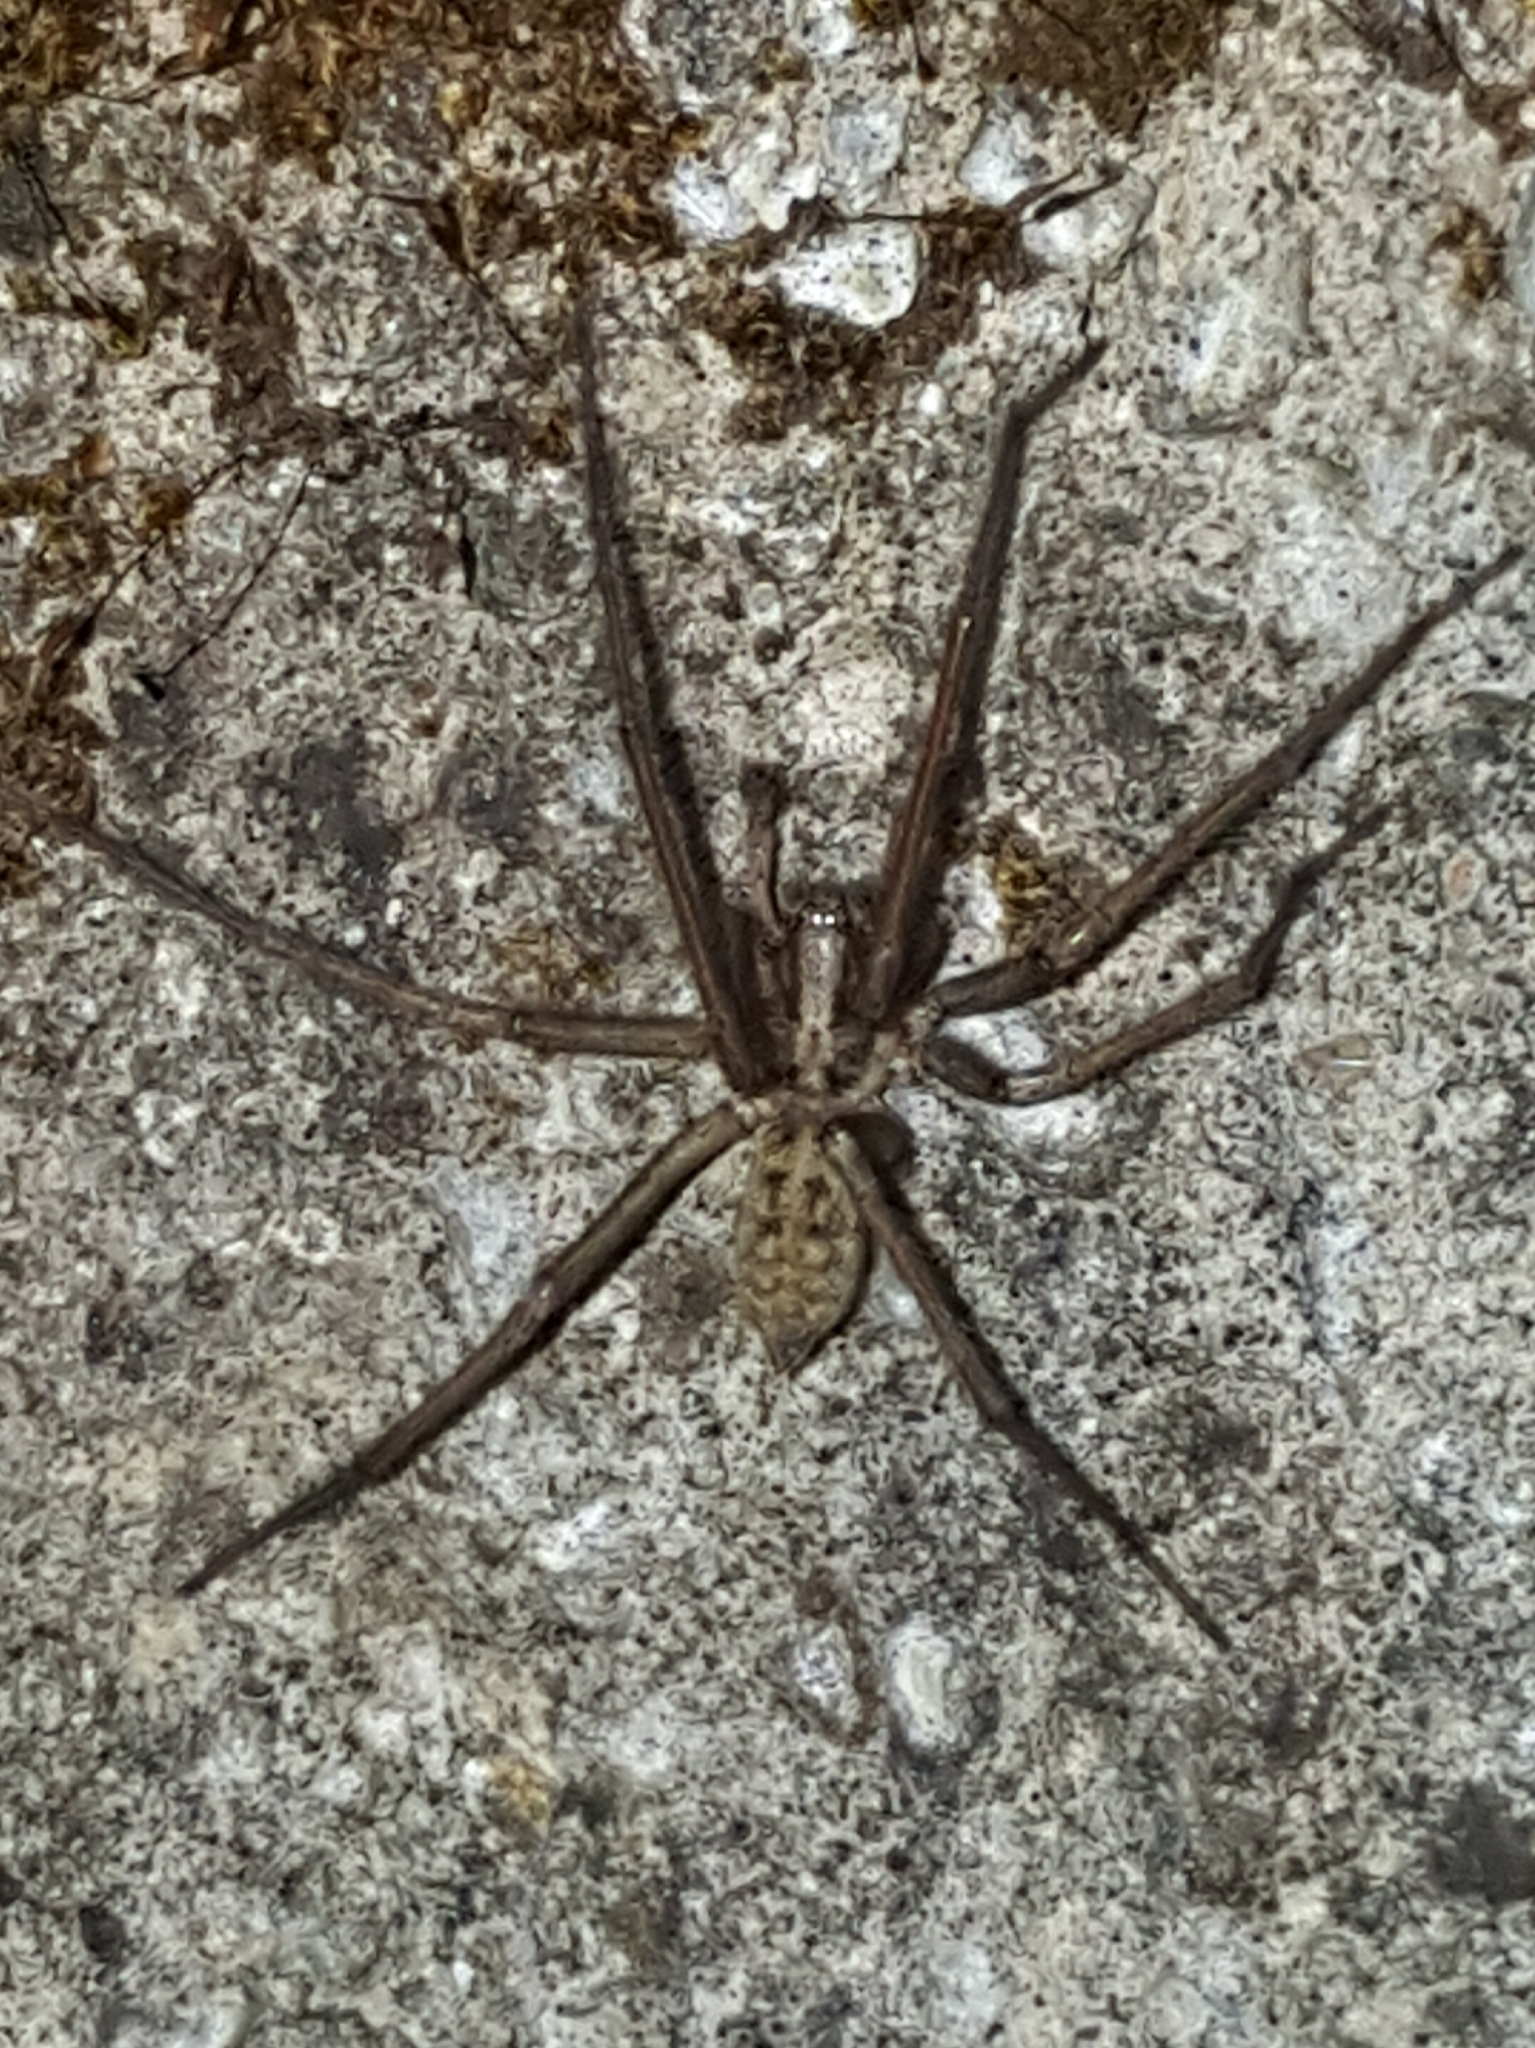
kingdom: Animalia
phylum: Arthropoda
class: Arachnida
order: Araneae
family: Agelenidae
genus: Eratigena
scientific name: Eratigena duellica
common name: Giant house spider
